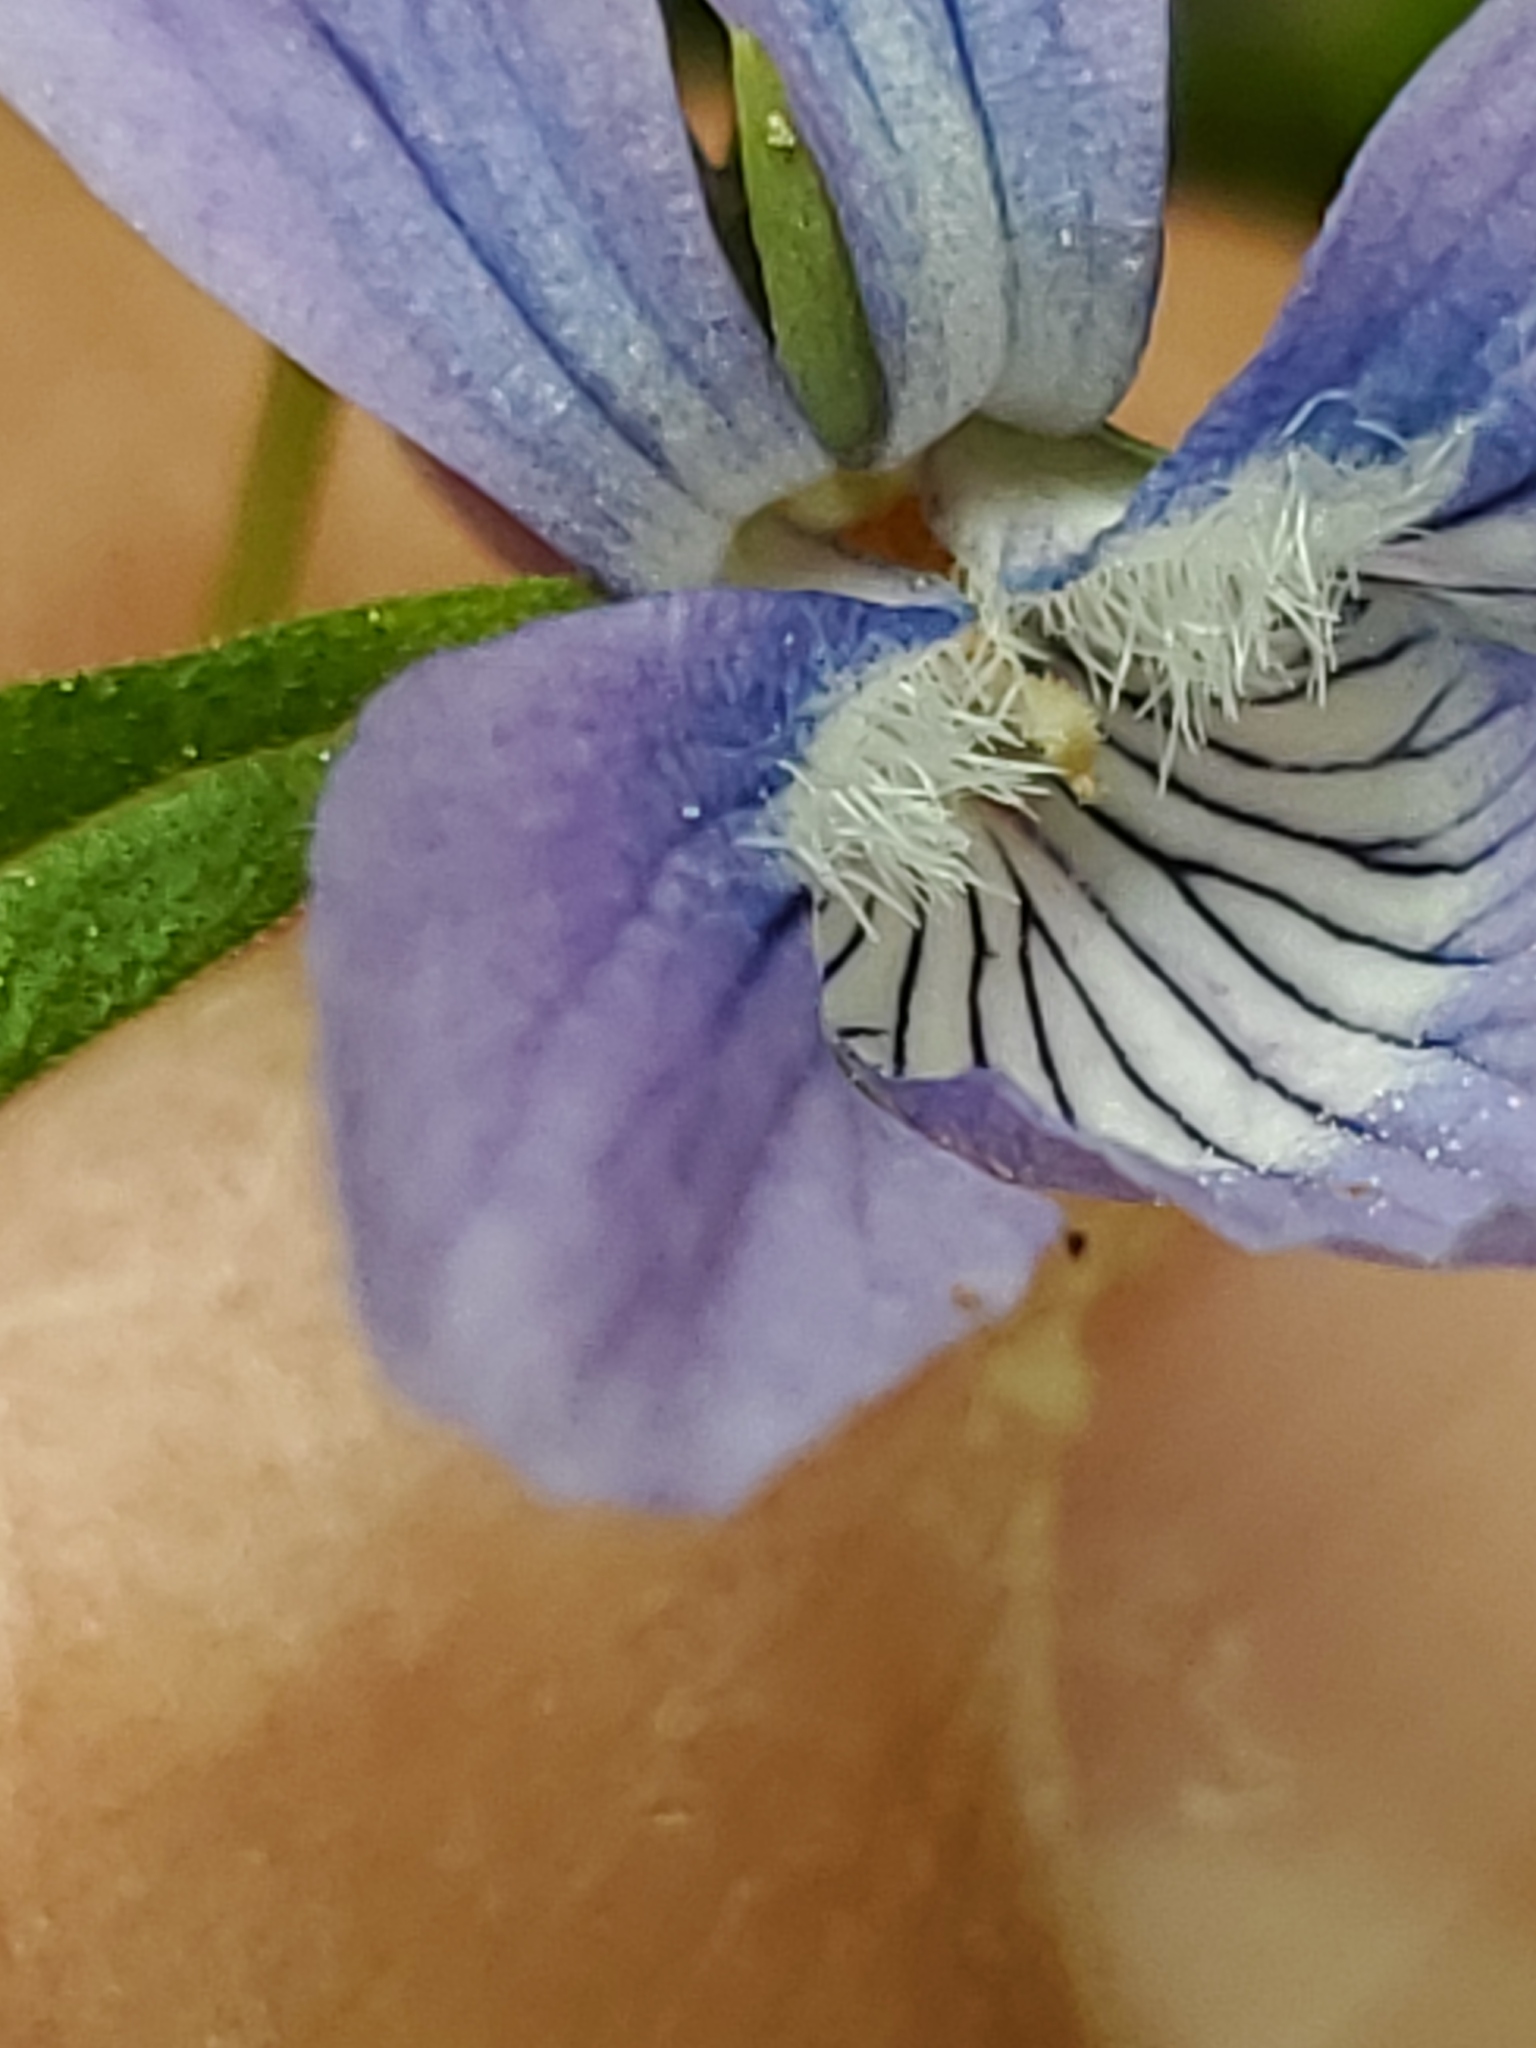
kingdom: Plantae
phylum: Tracheophyta
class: Magnoliopsida
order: Malpighiales
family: Violaceae
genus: Viola
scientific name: Viola adunca
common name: Sand violet
